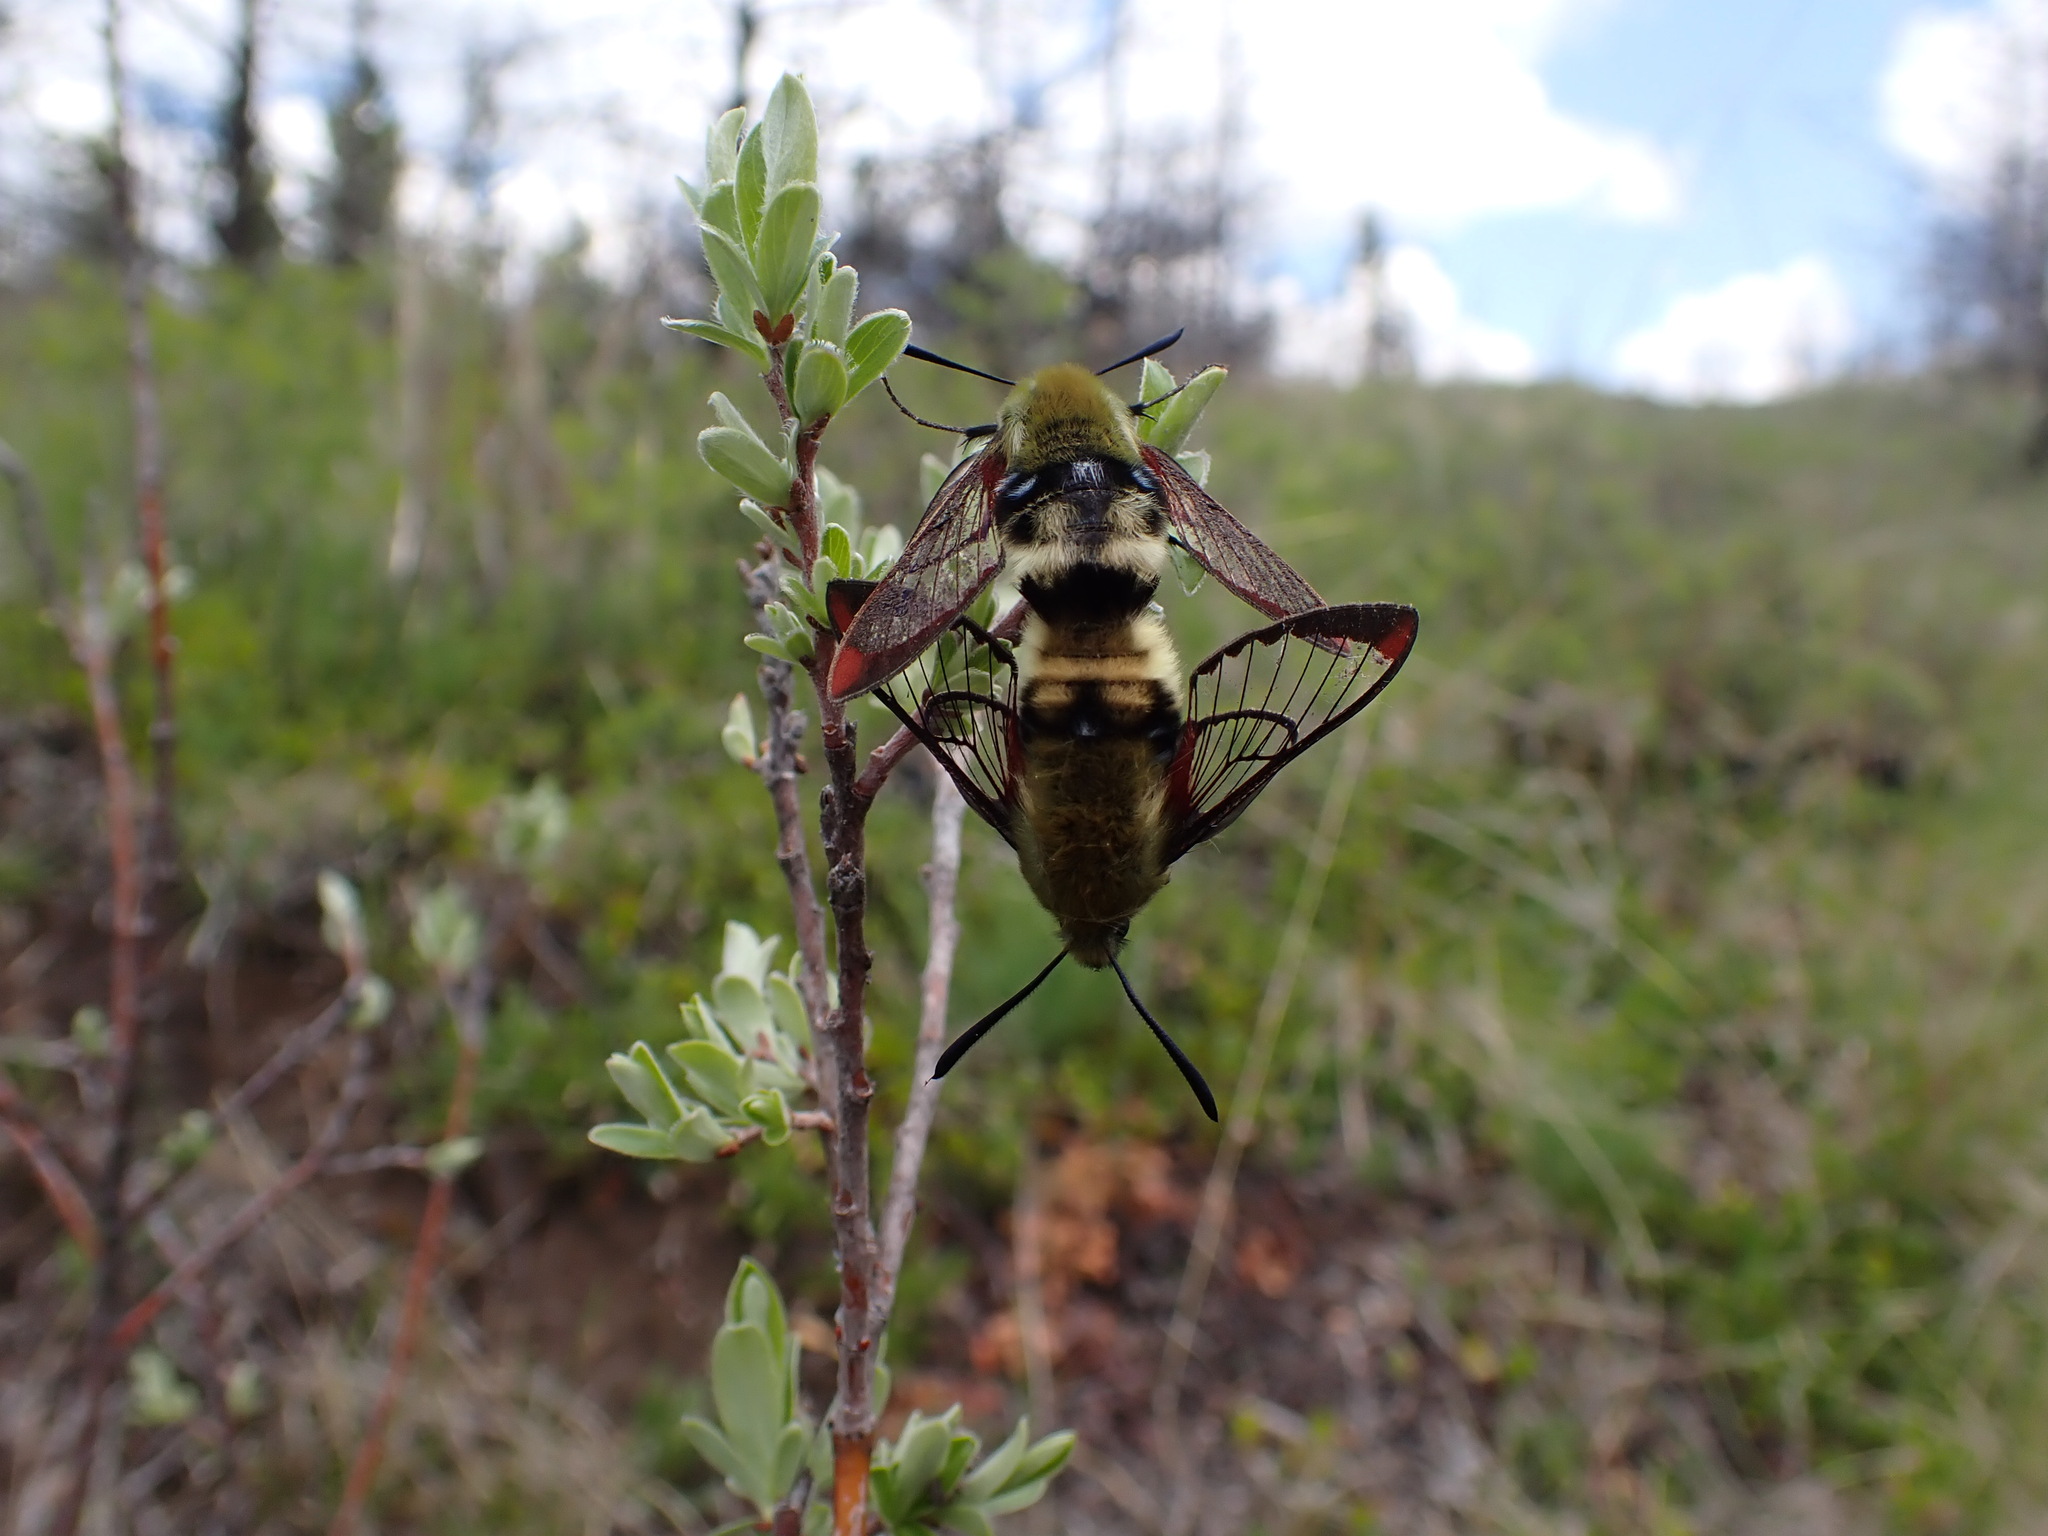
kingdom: Animalia
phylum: Arthropoda
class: Insecta
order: Lepidoptera
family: Sphingidae
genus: Hemaris
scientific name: Hemaris thetis
